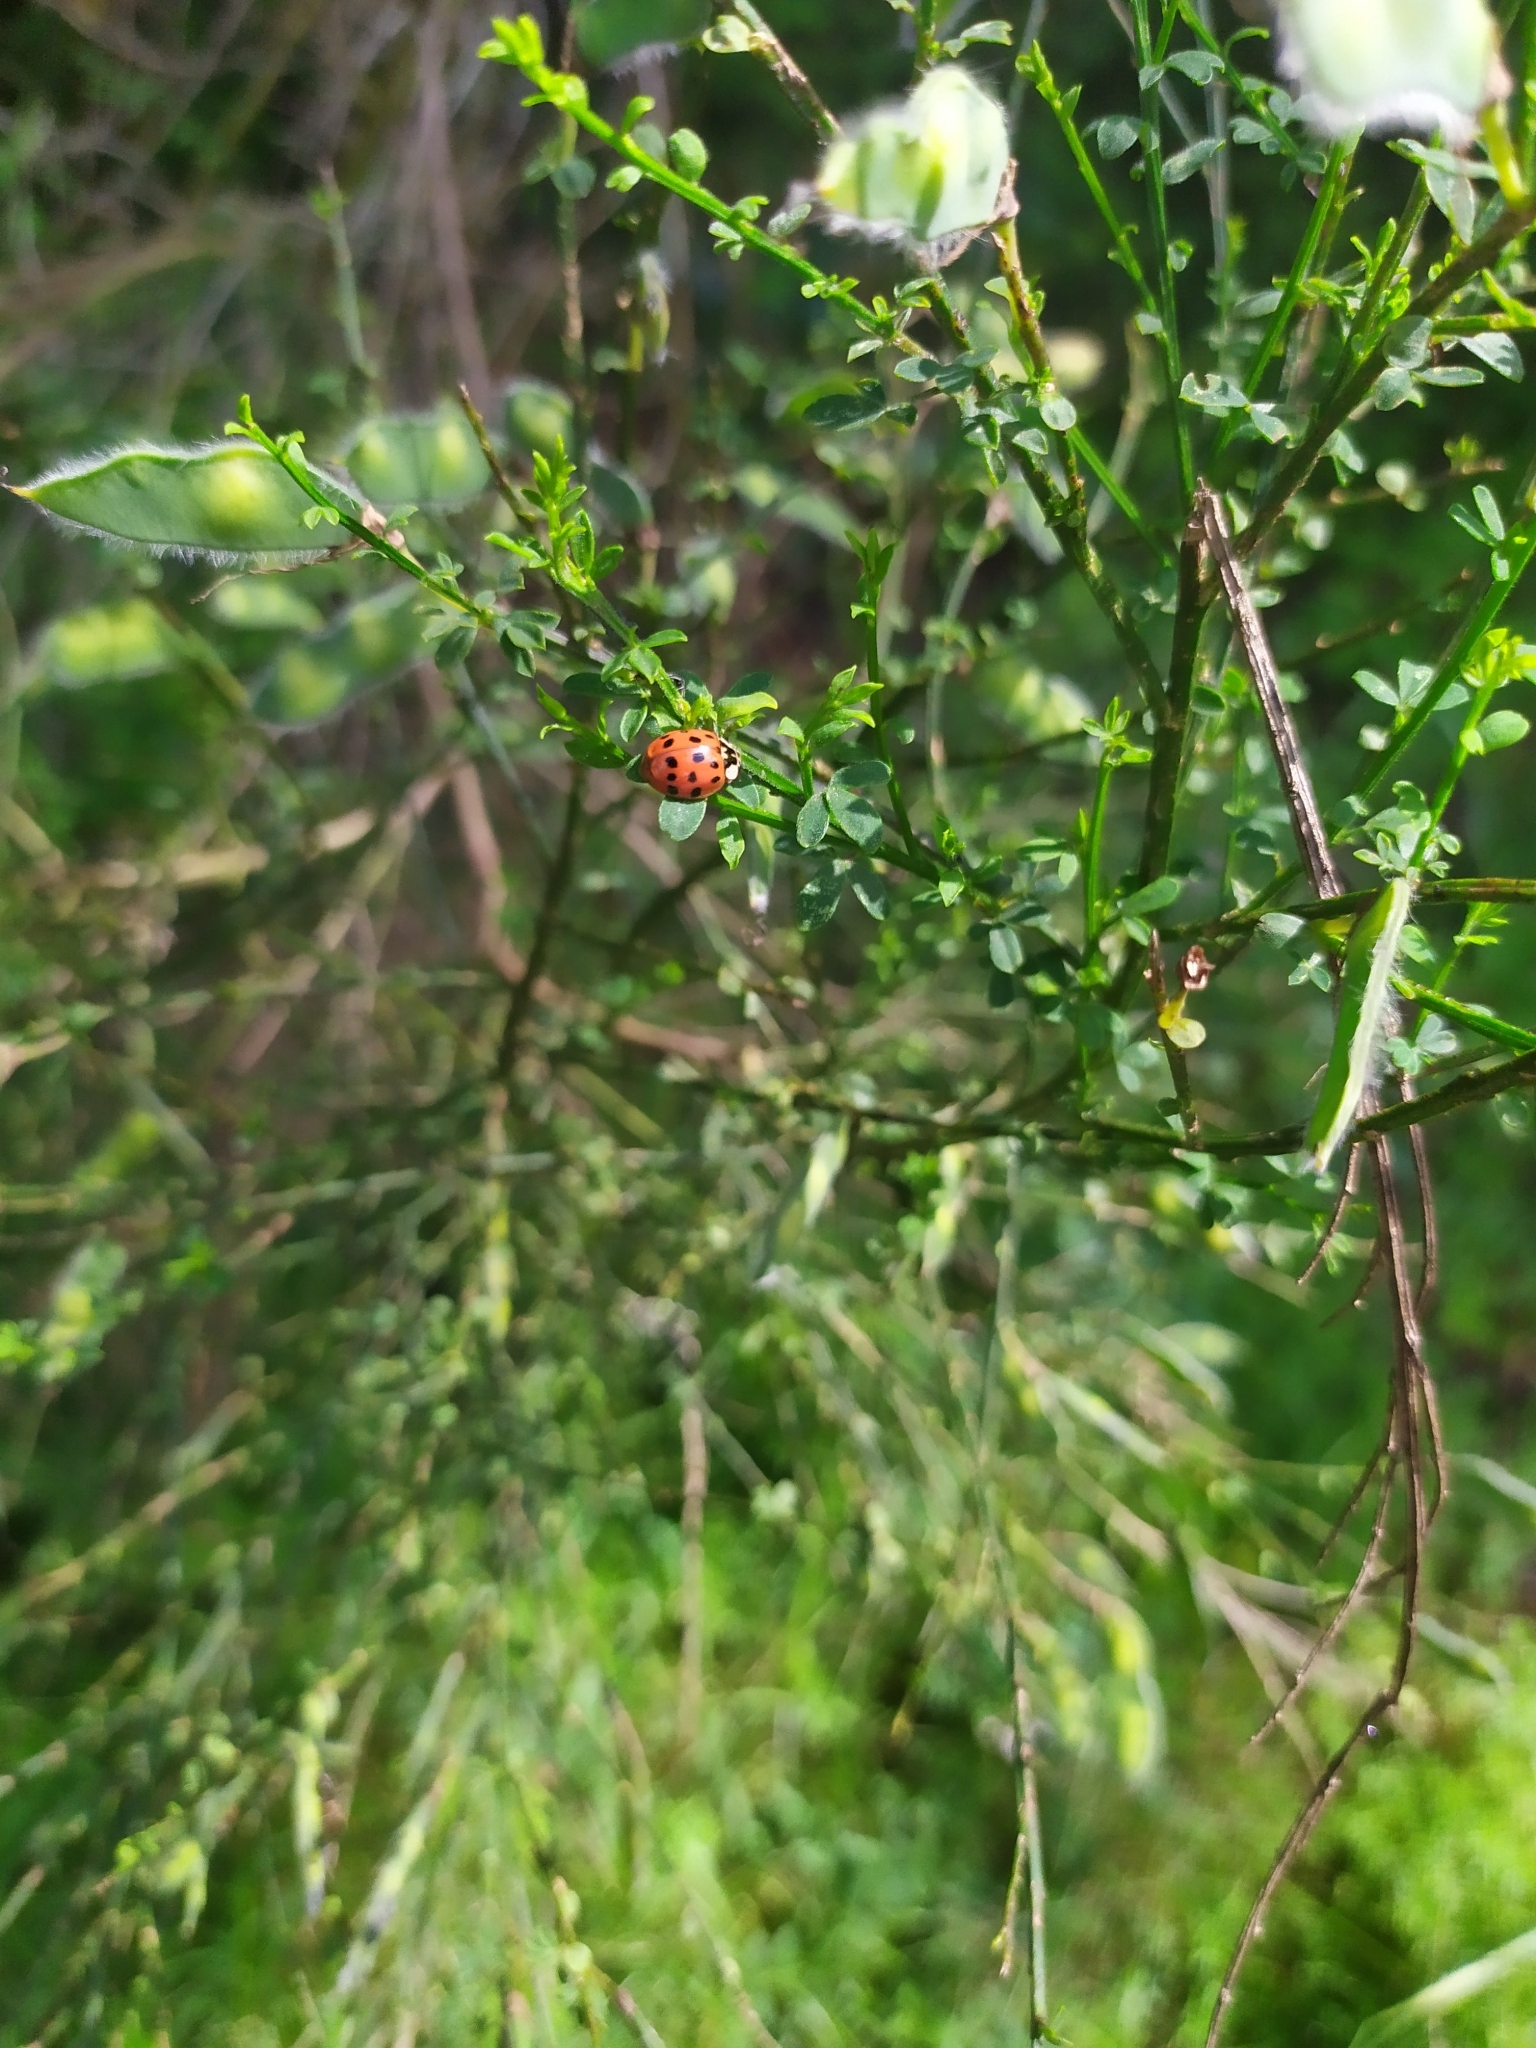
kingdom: Animalia
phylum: Arthropoda
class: Insecta
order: Coleoptera
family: Coccinellidae
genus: Harmonia
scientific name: Harmonia axyridis
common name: Harlequin ladybird
